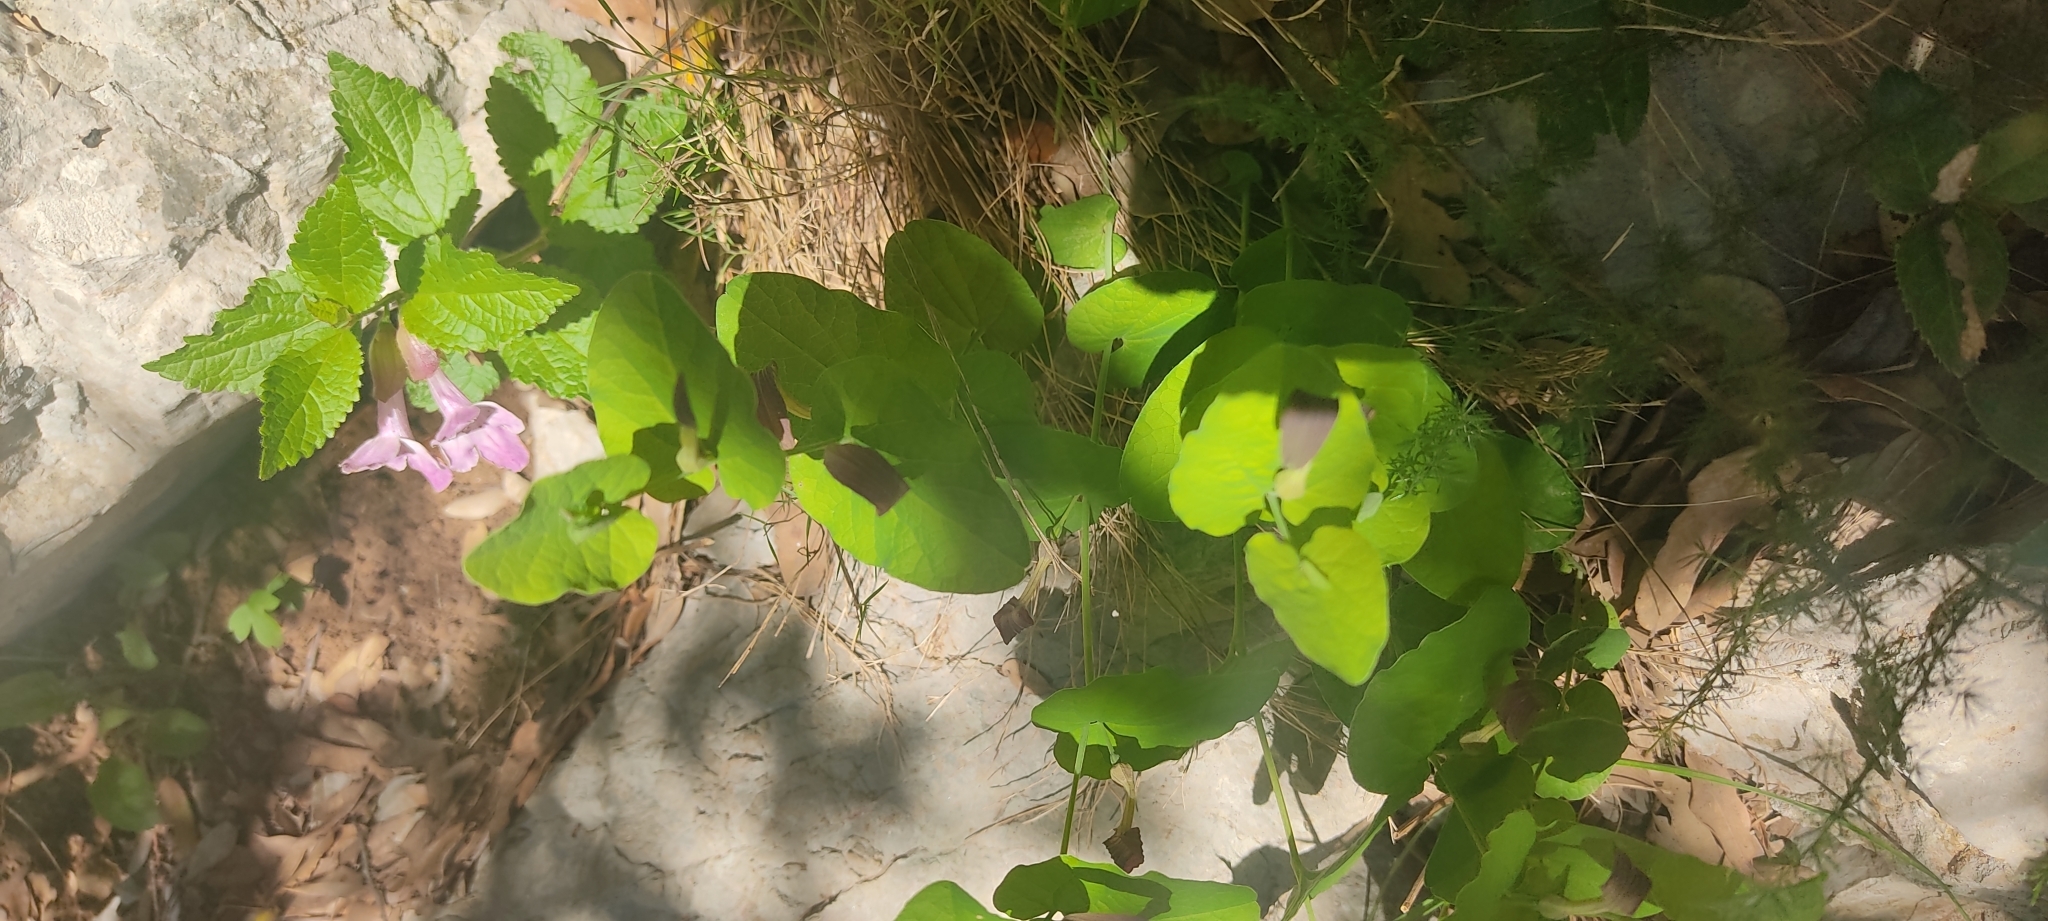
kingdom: Plantae
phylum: Tracheophyta
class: Magnoliopsida
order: Piperales
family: Aristolochiaceae
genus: Aristolochia
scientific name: Aristolochia rotunda
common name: Smearwort
